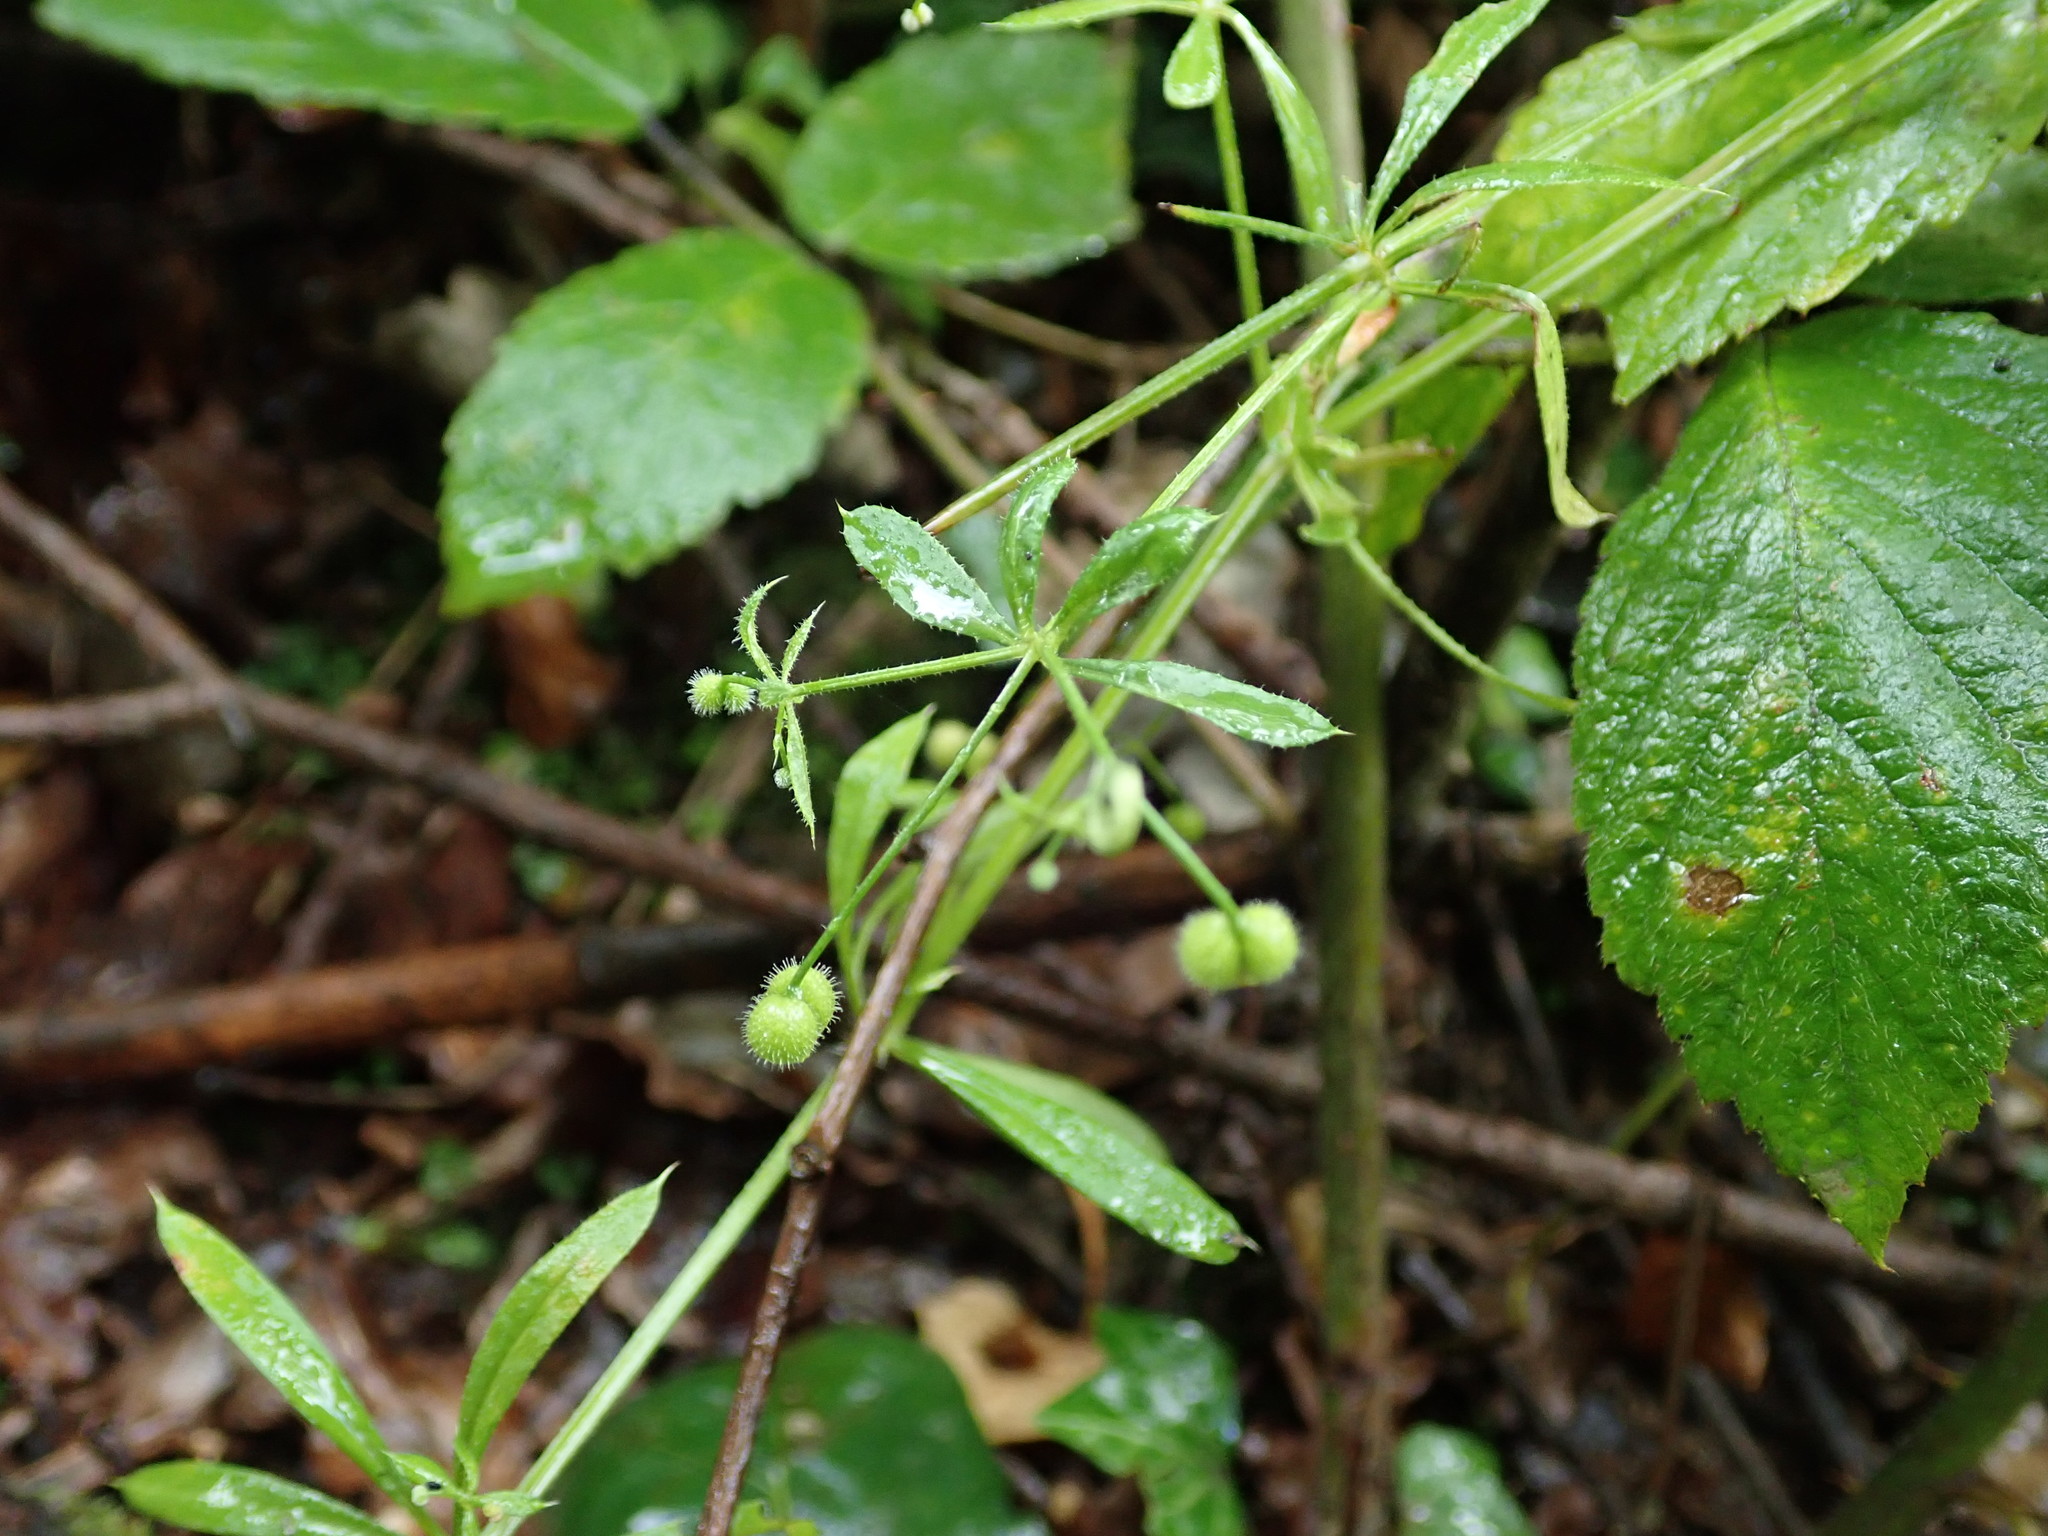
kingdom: Plantae
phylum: Tracheophyta
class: Magnoliopsida
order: Gentianales
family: Rubiaceae
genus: Galium
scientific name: Galium aparine
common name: Cleavers
